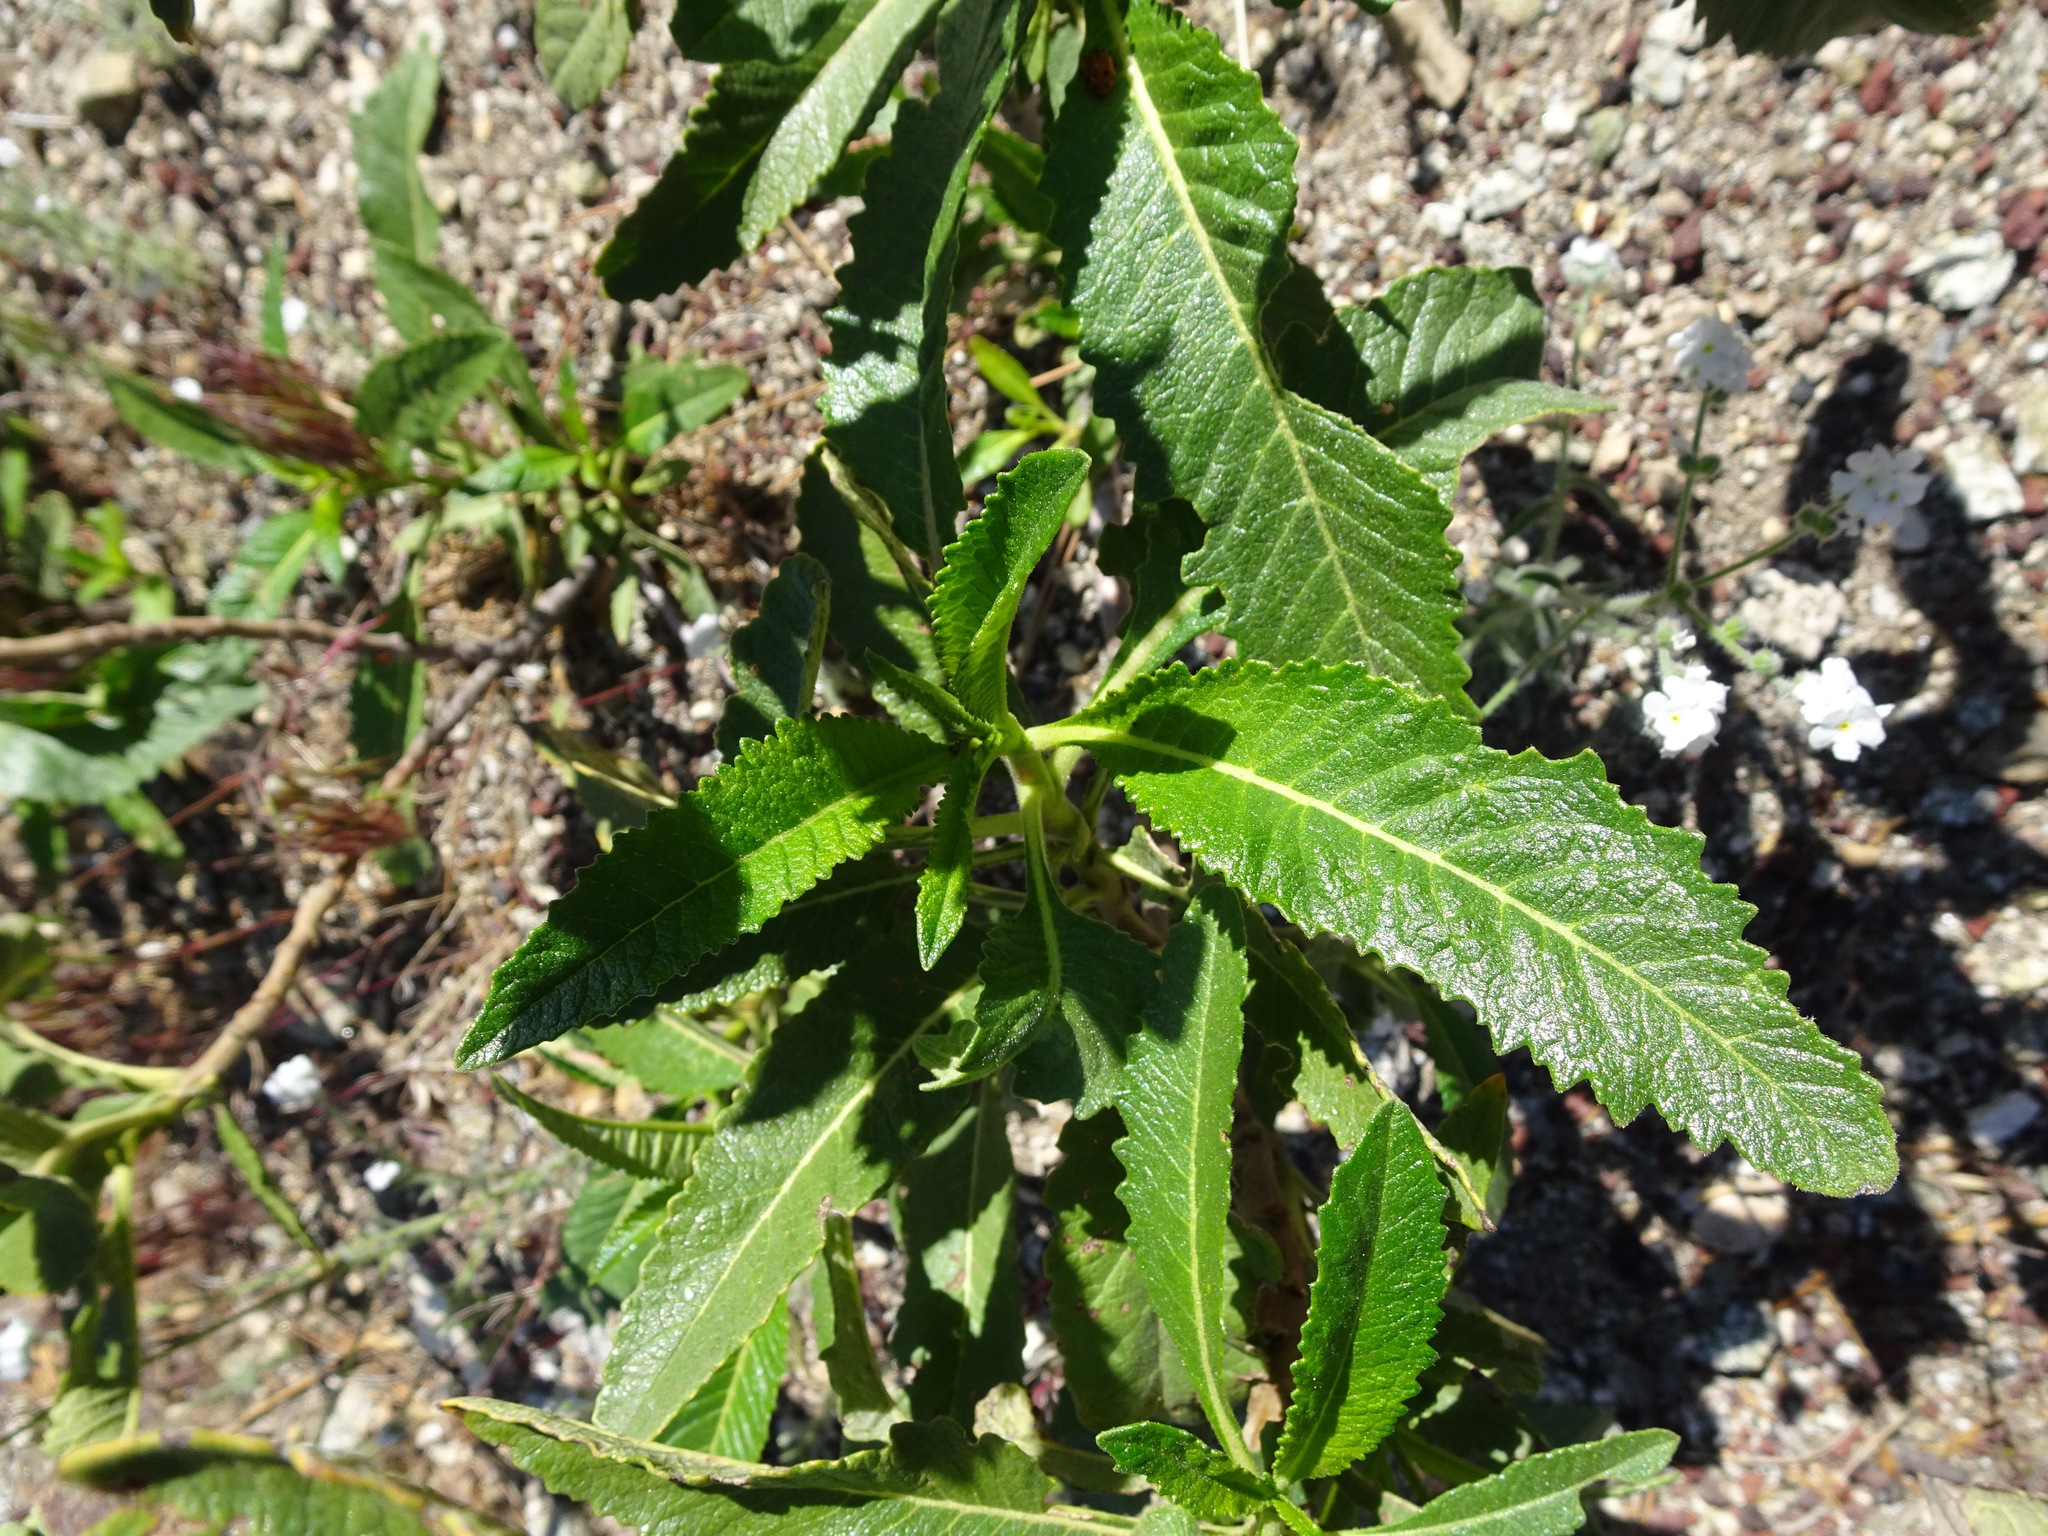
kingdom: Plantae
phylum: Tracheophyta
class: Magnoliopsida
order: Boraginales
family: Namaceae
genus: Eriodictyon
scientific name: Eriodictyon trichocalyx
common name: Hairy yerba-santa
